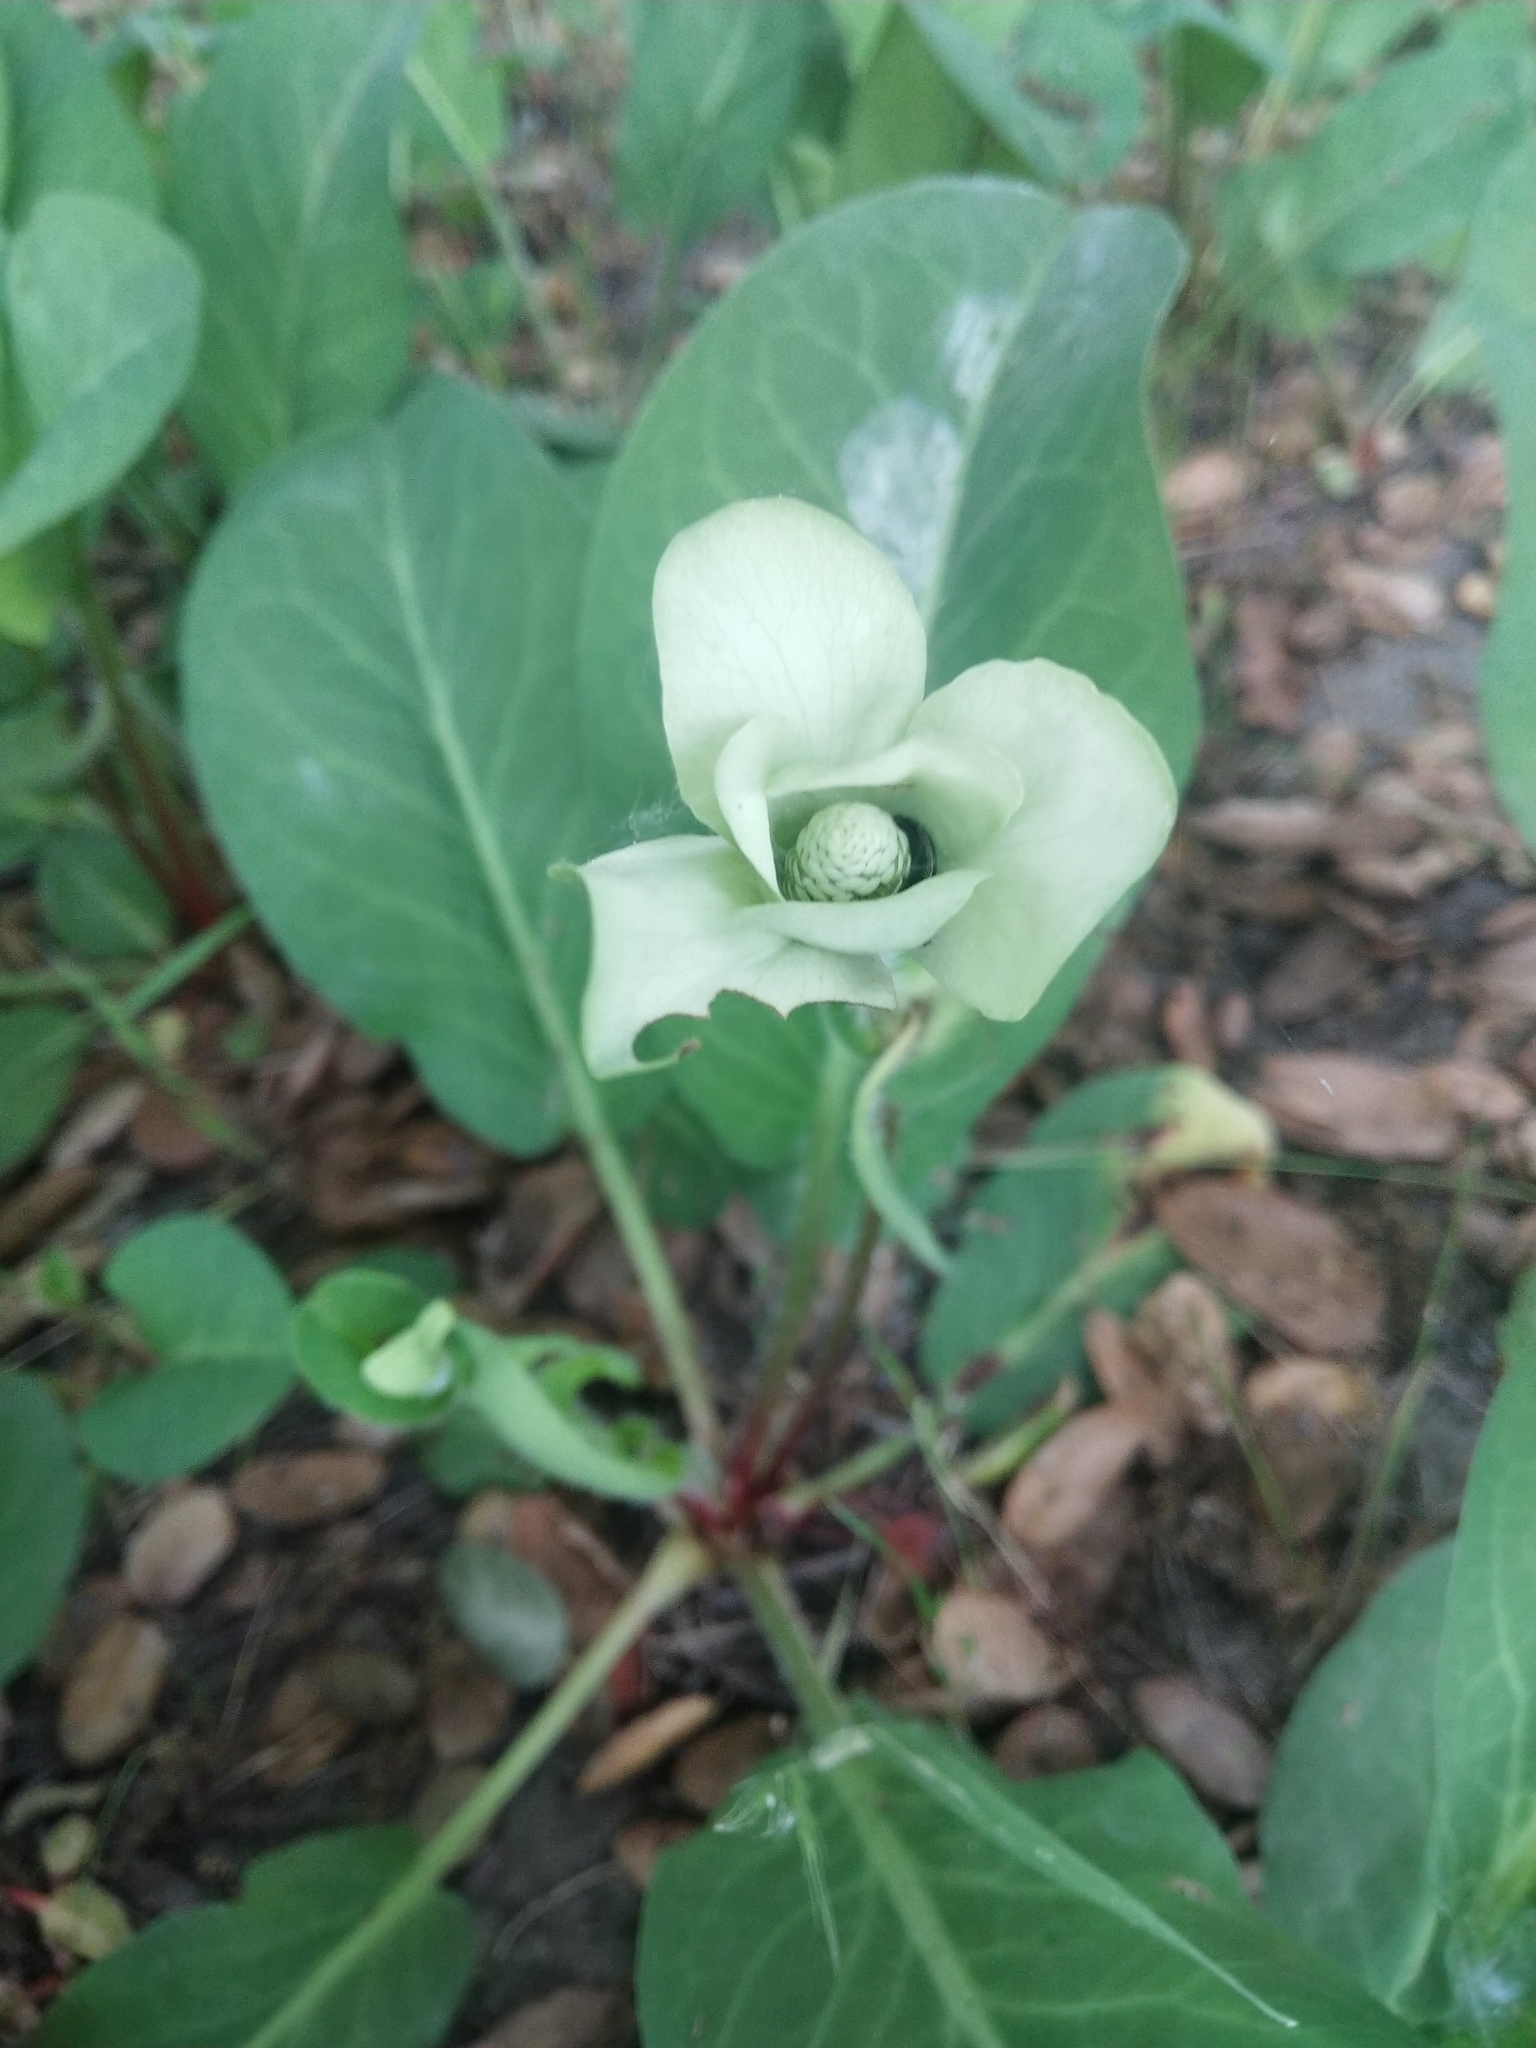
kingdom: Plantae
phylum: Tracheophyta
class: Magnoliopsida
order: Piperales
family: Saururaceae
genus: Anemopsis
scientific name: Anemopsis californica
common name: Apache-beads
